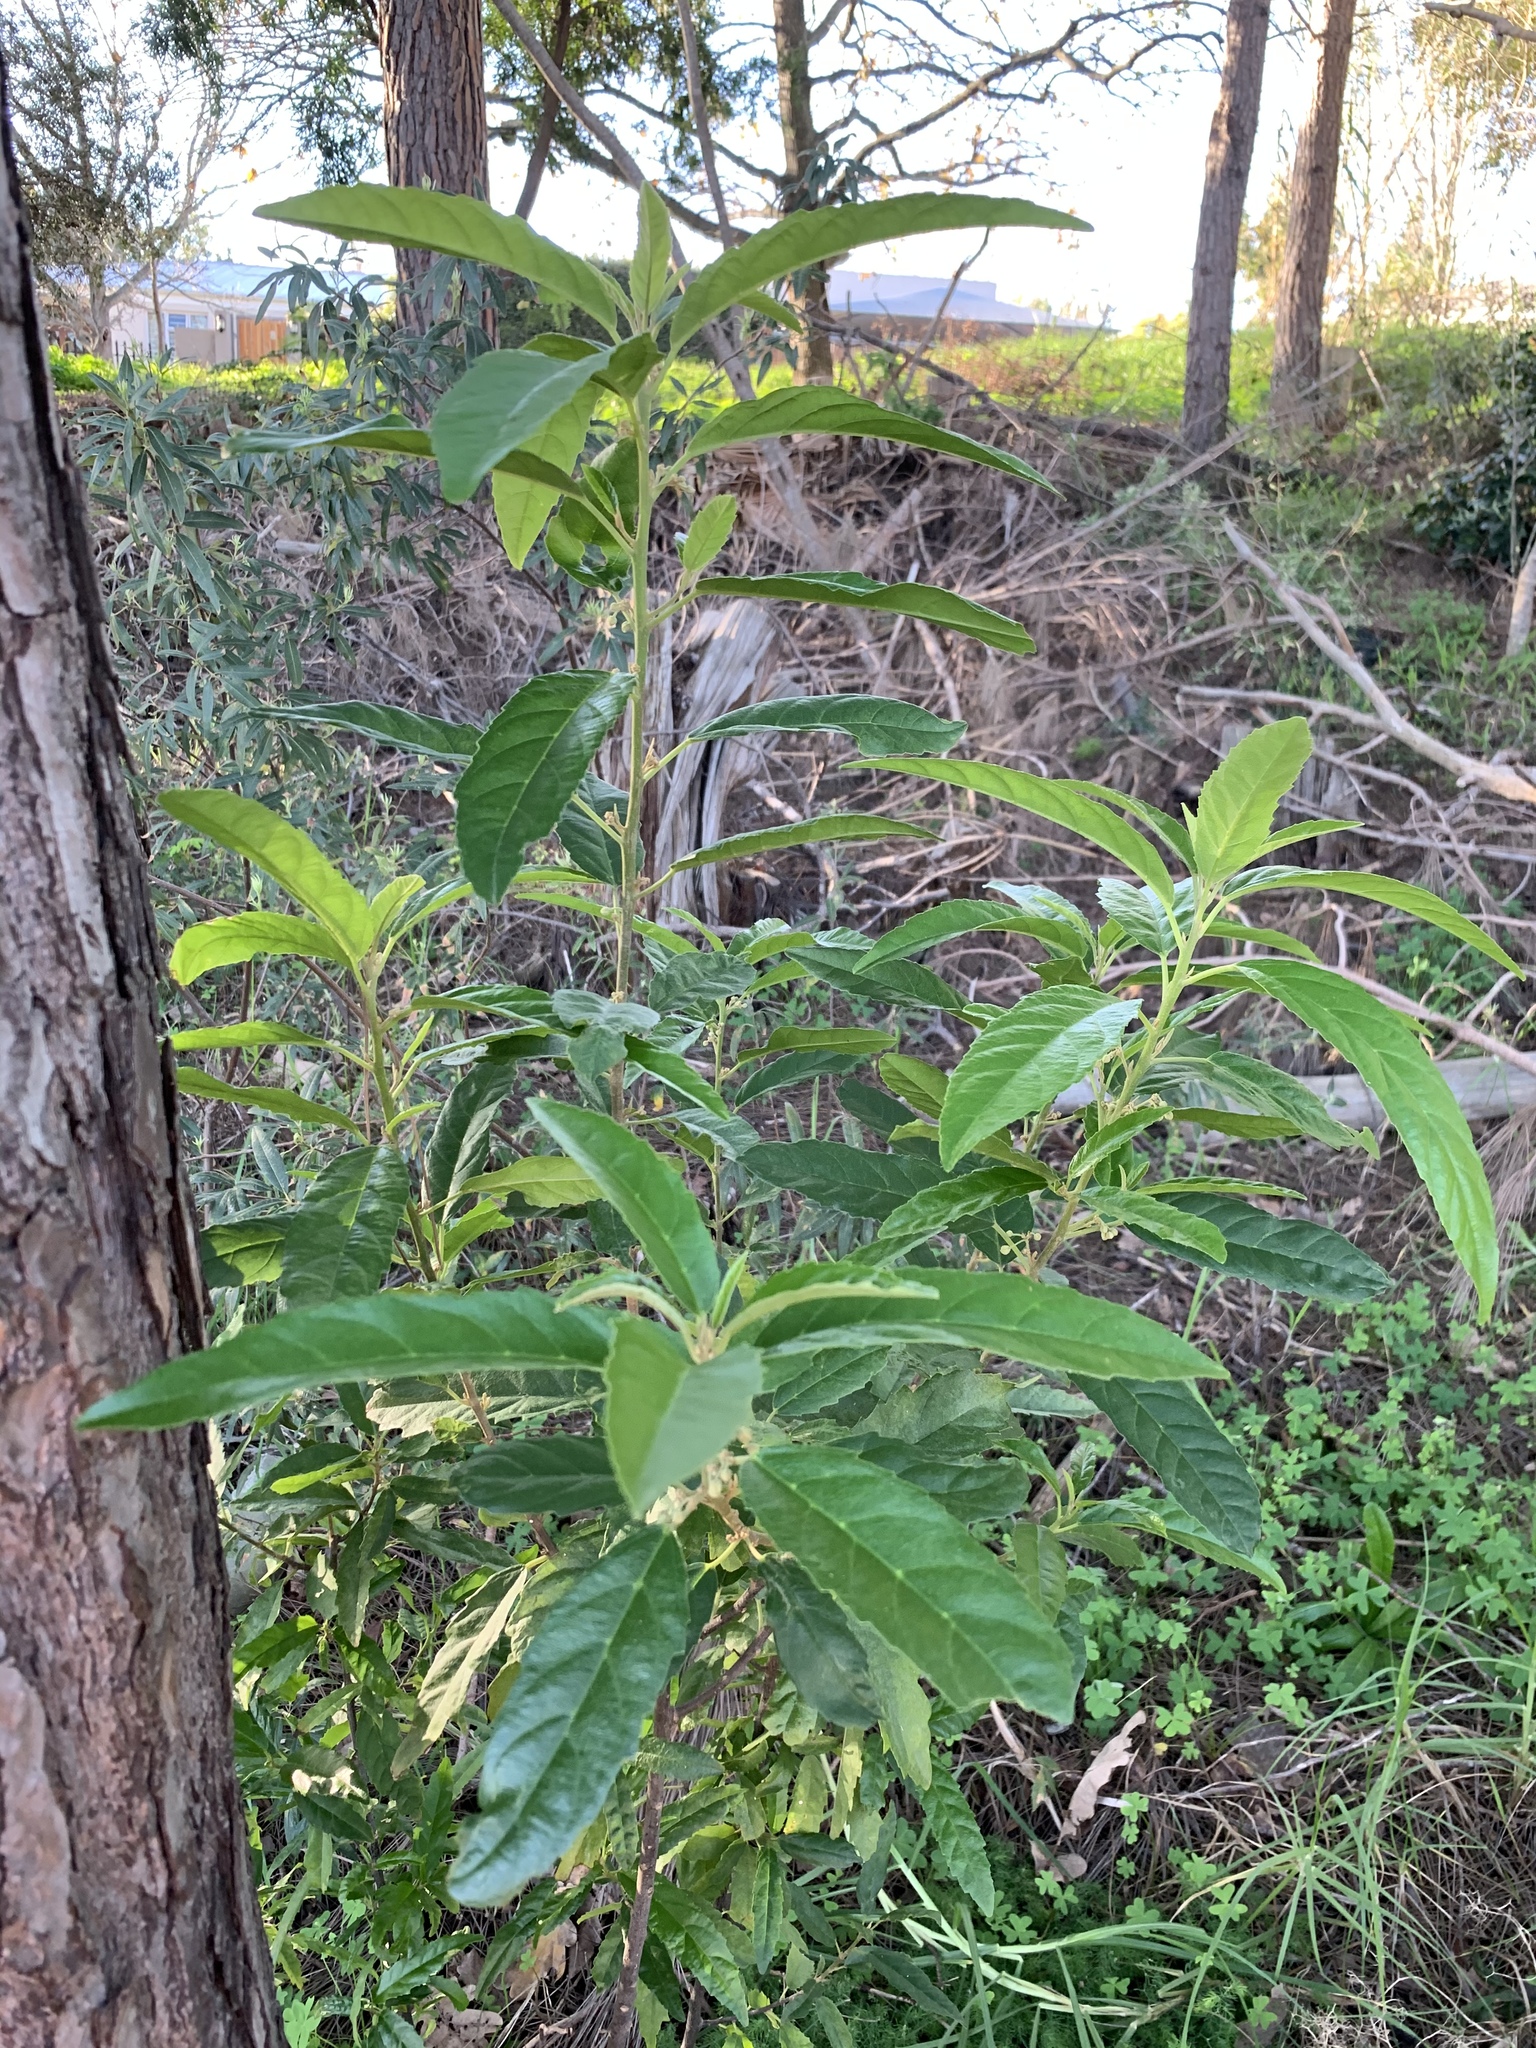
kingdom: Plantae
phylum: Tracheophyta
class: Magnoliopsida
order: Malpighiales
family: Achariaceae
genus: Kiggelaria
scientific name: Kiggelaria africana
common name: Wild peach
